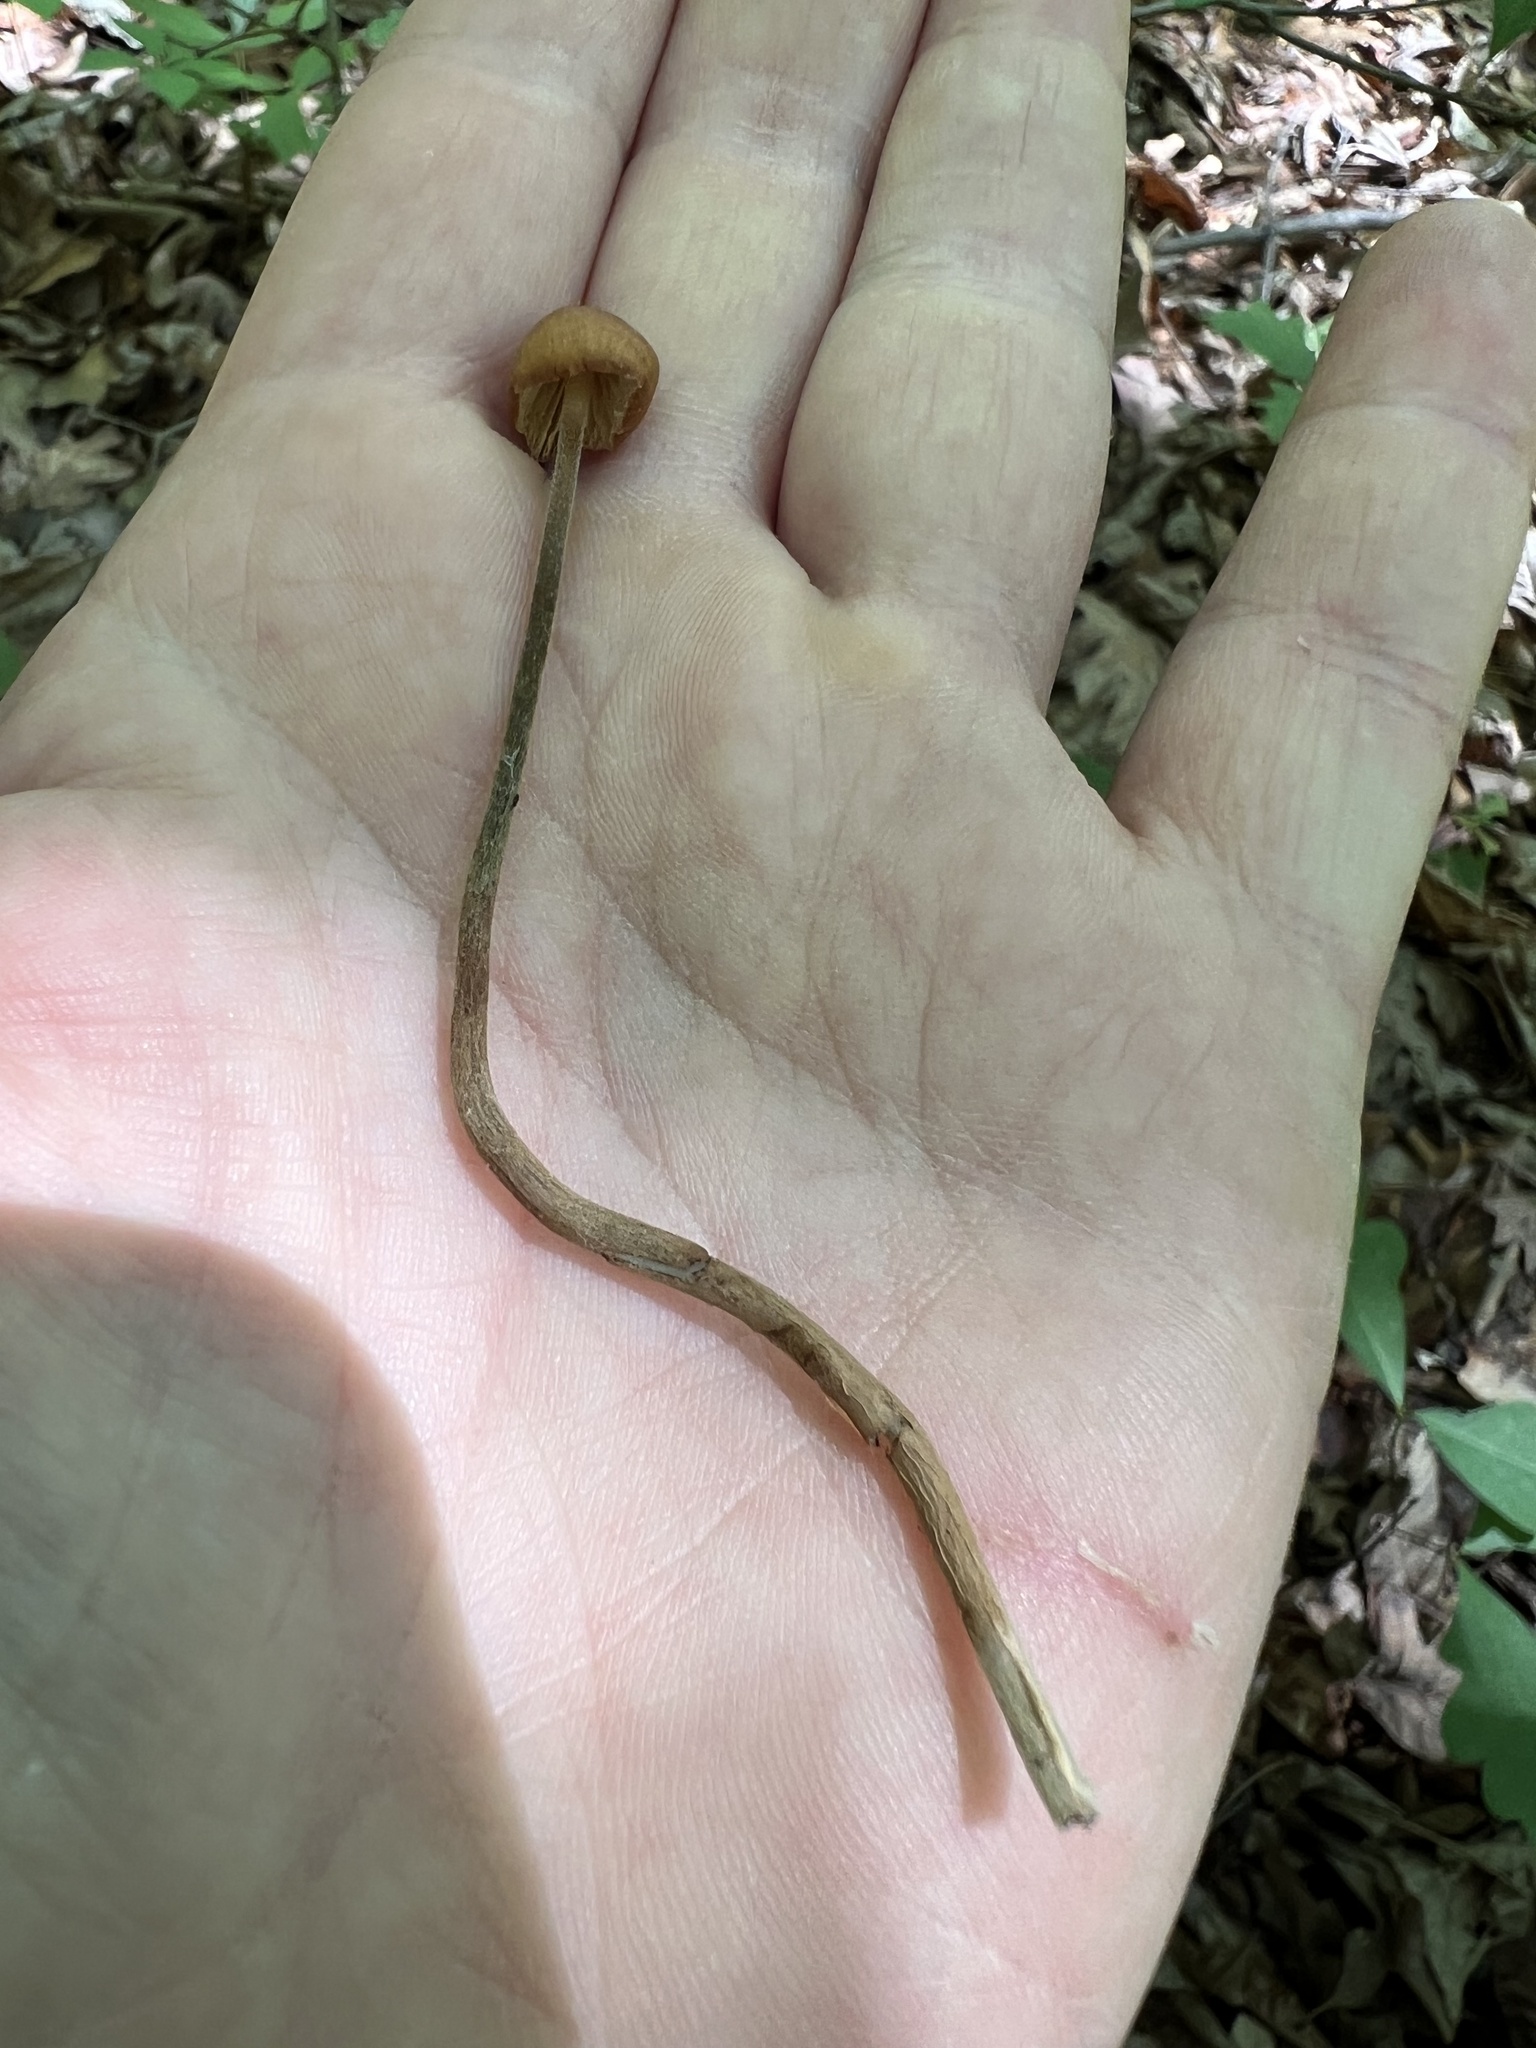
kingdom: Fungi
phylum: Basidiomycota
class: Agaricomycetes
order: Agaricales
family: Physalacriaceae
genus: Rhizomarasmius
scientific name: Rhizomarasmius pyrrhocephalus
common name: Hairy long stem marasmius
